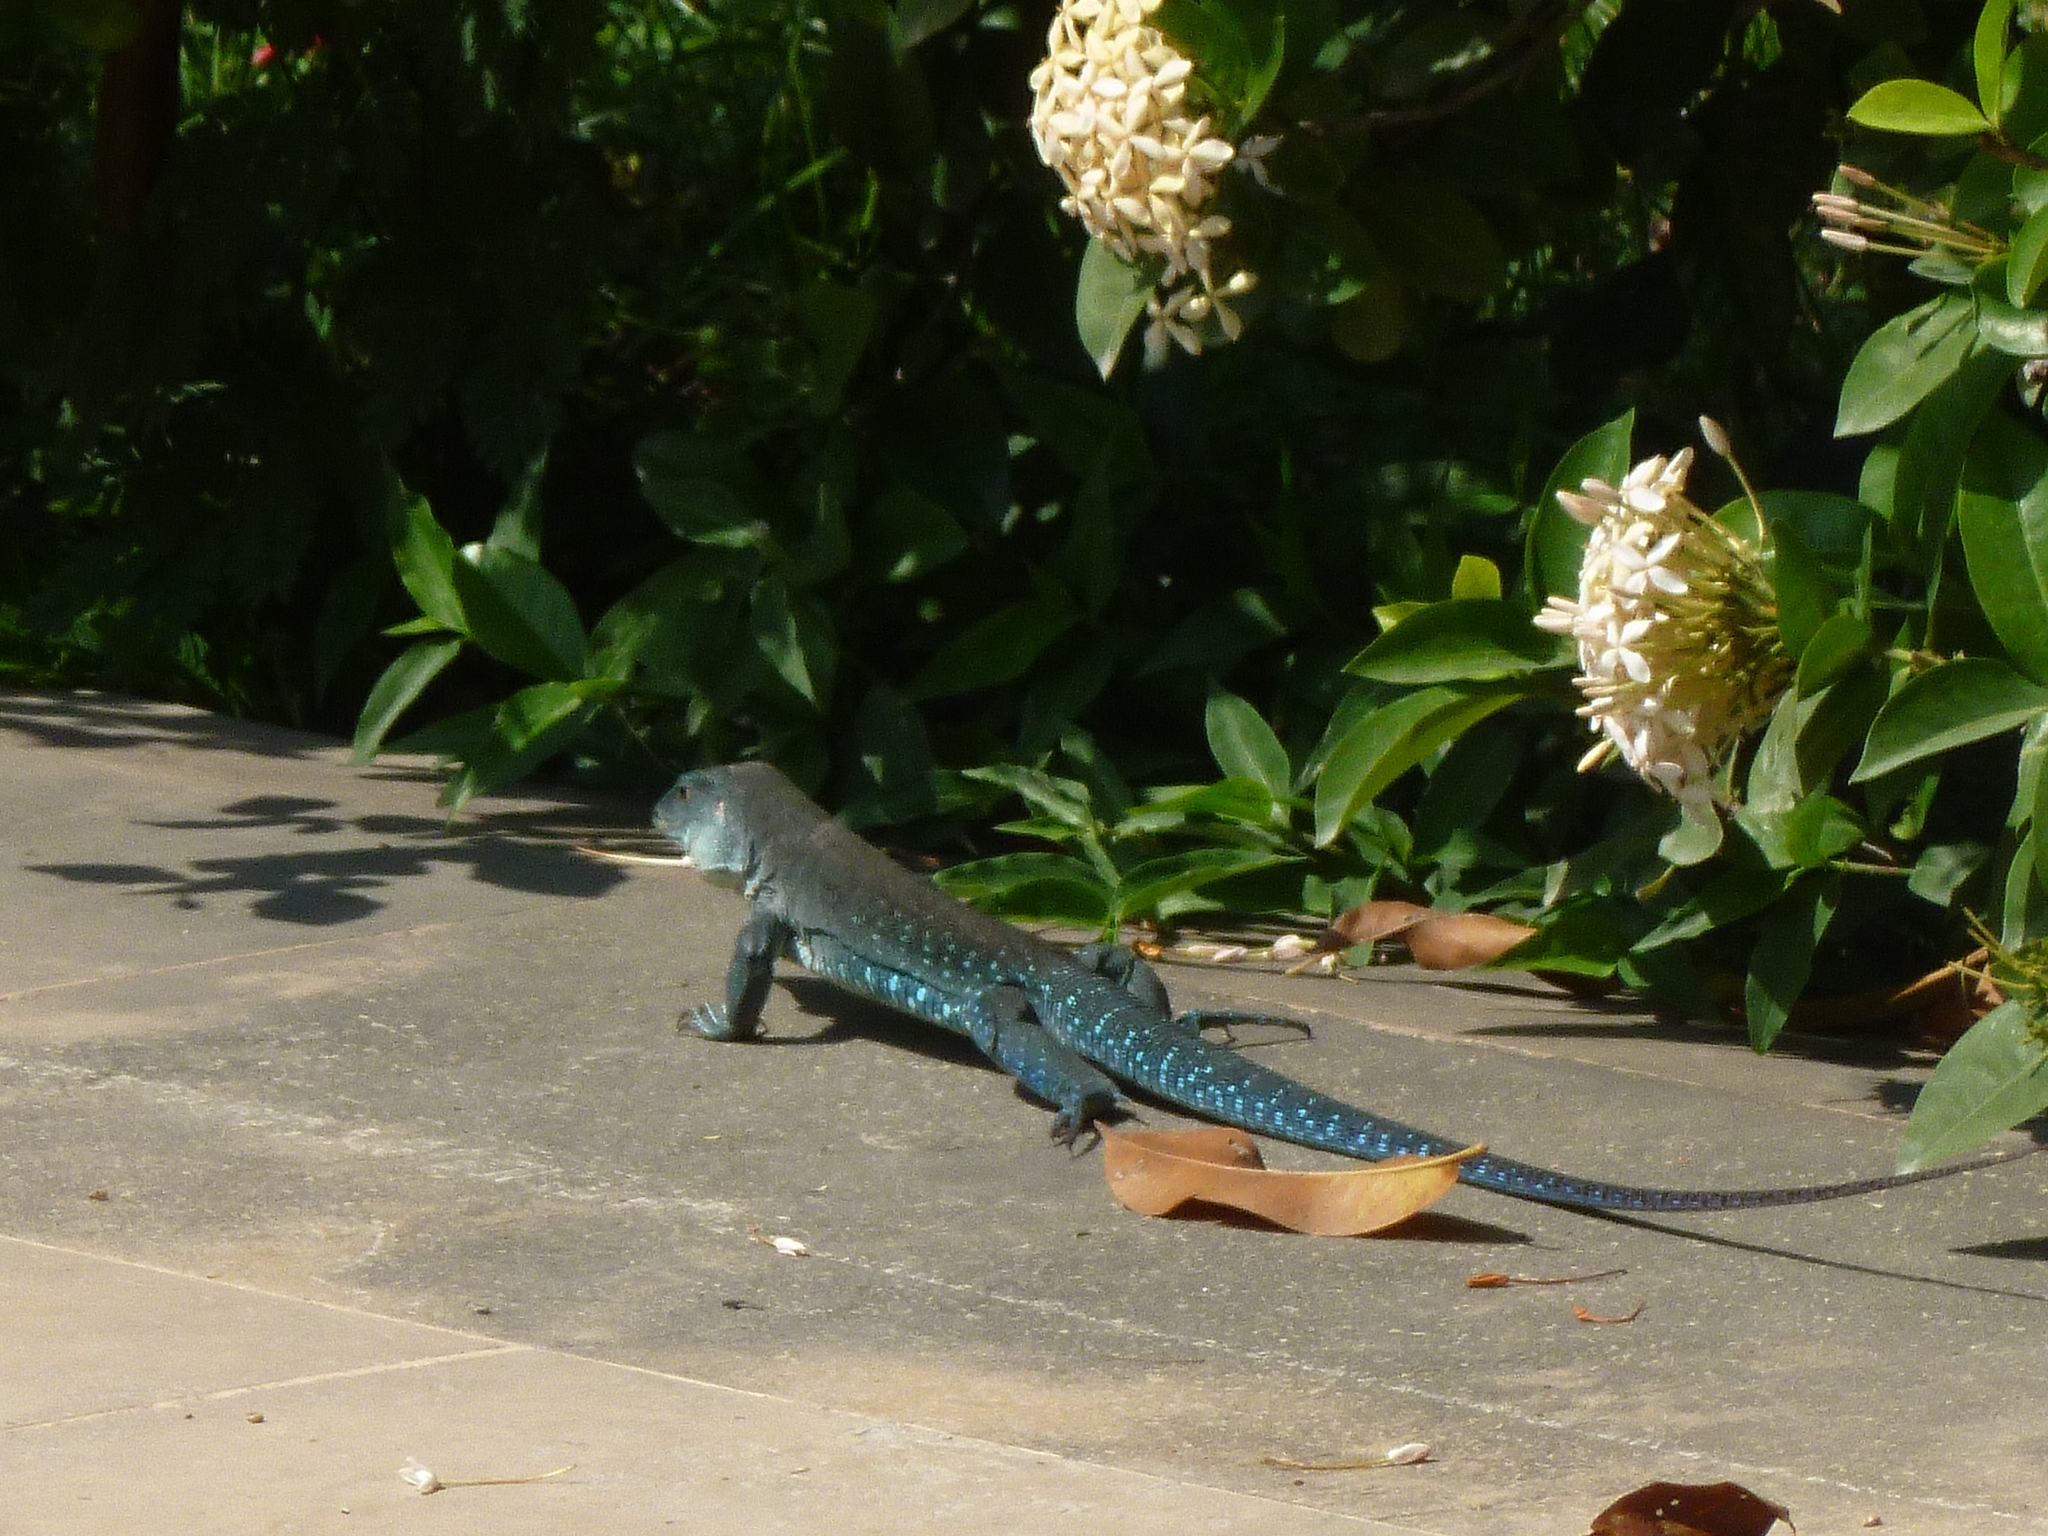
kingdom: Animalia
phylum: Chordata
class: Squamata
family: Teiidae
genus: Ameiva
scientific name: Ameiva praesignis
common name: Giant ameiva
